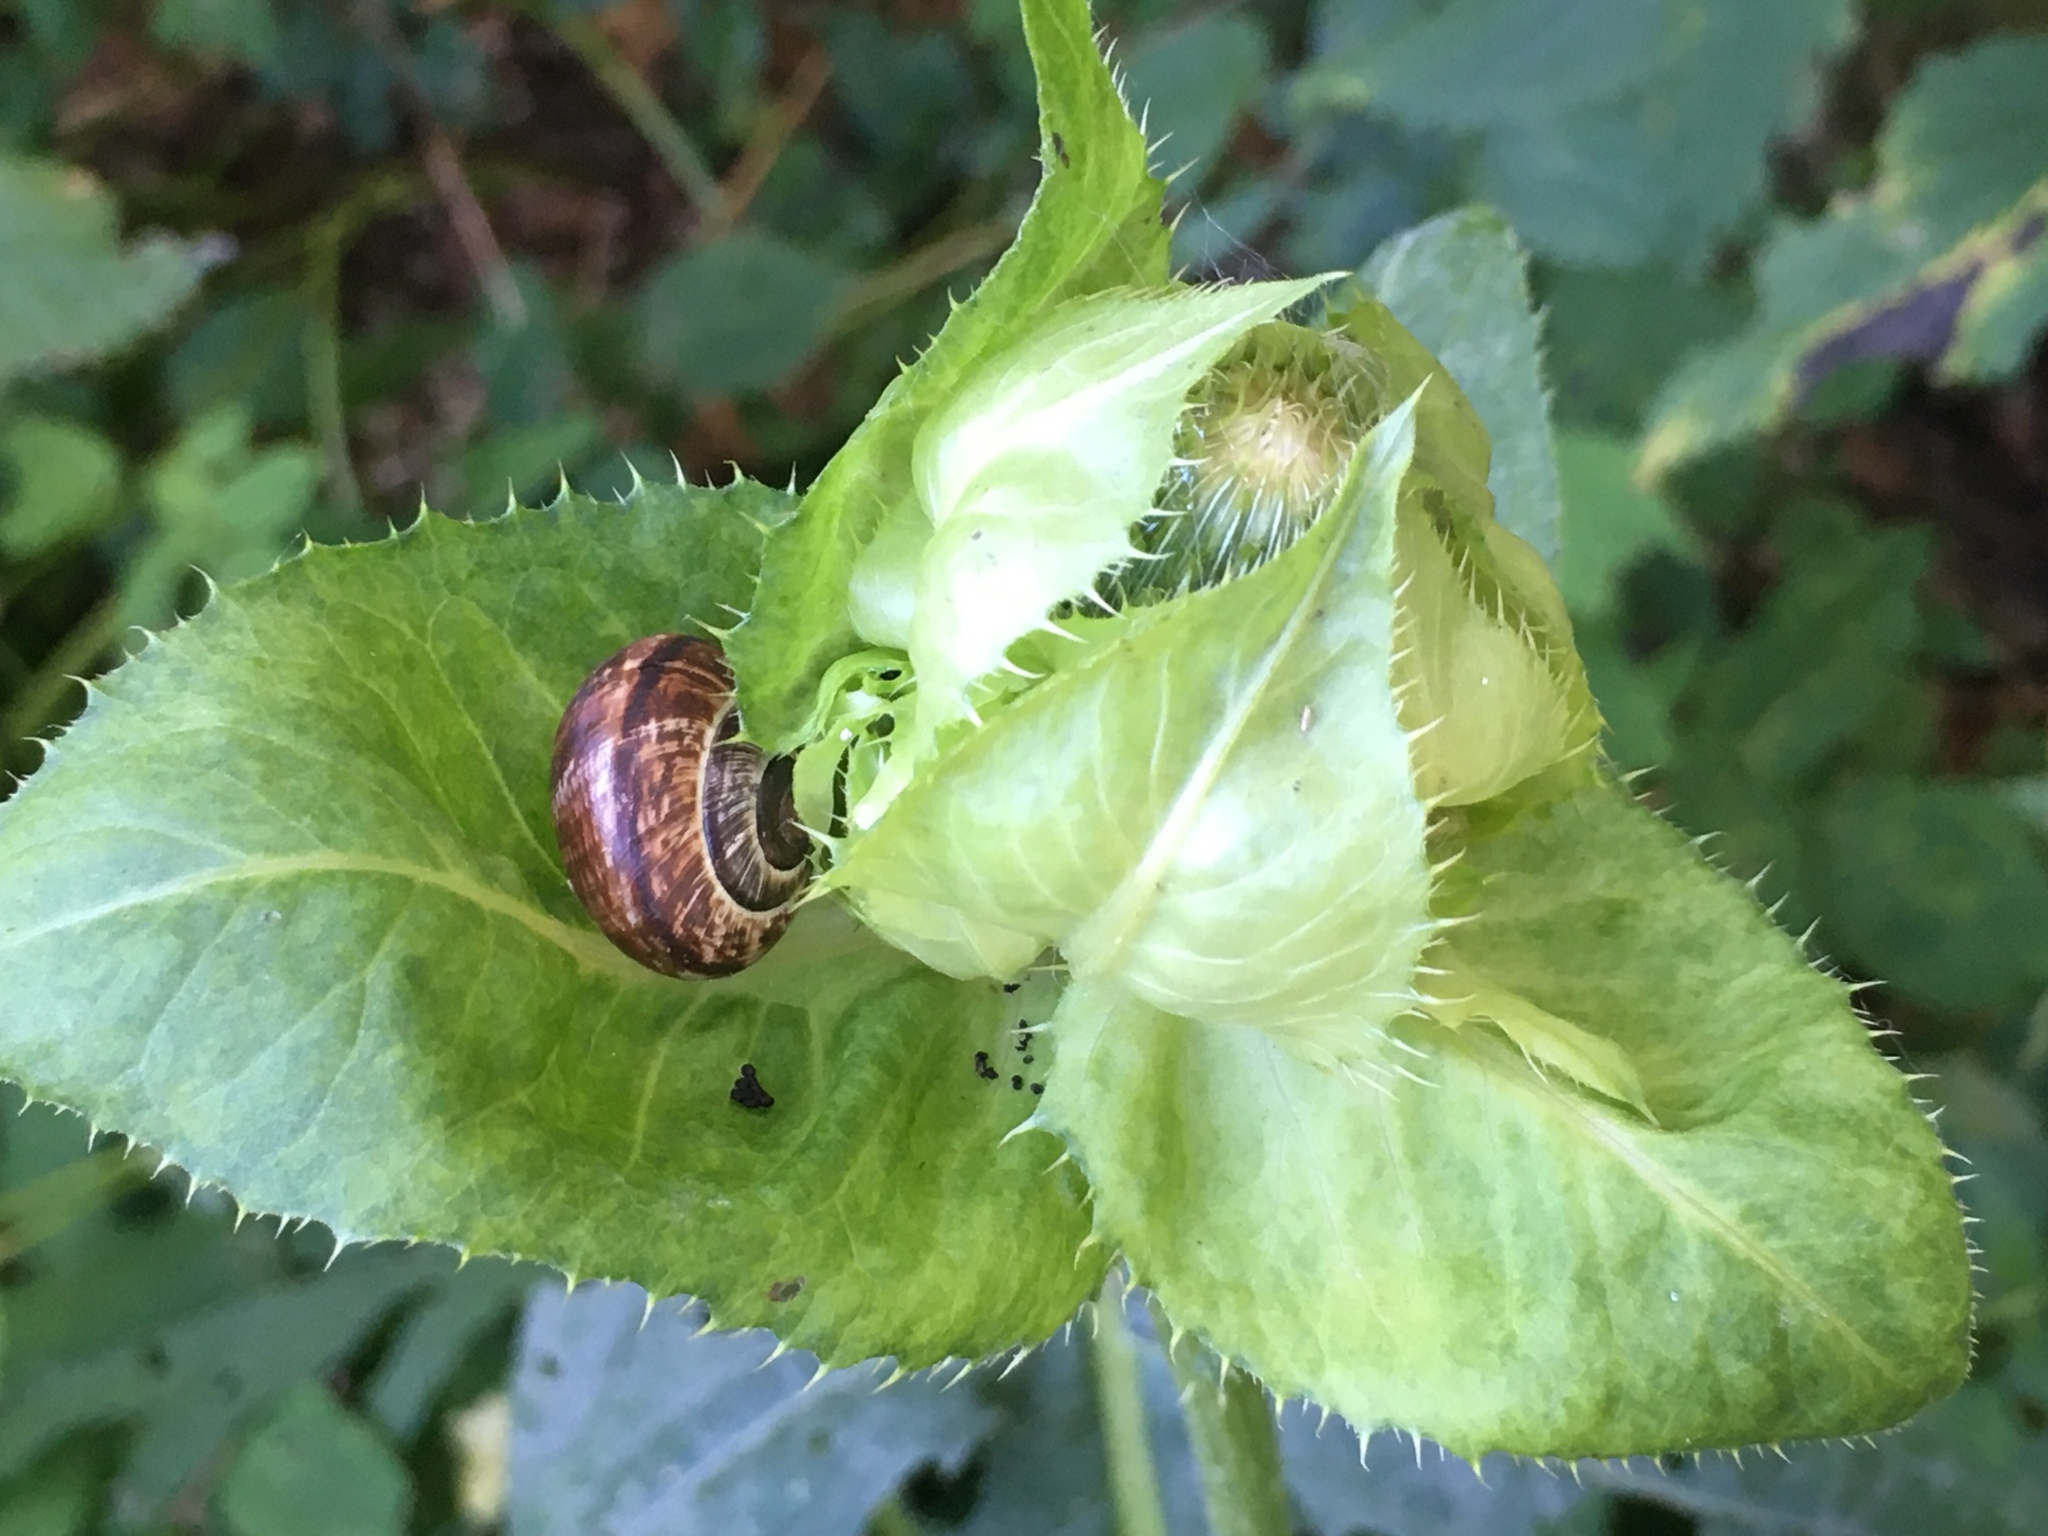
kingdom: Animalia
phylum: Mollusca
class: Gastropoda
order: Stylommatophora
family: Helicidae
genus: Arianta
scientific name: Arianta arbustorum
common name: Copse snail
